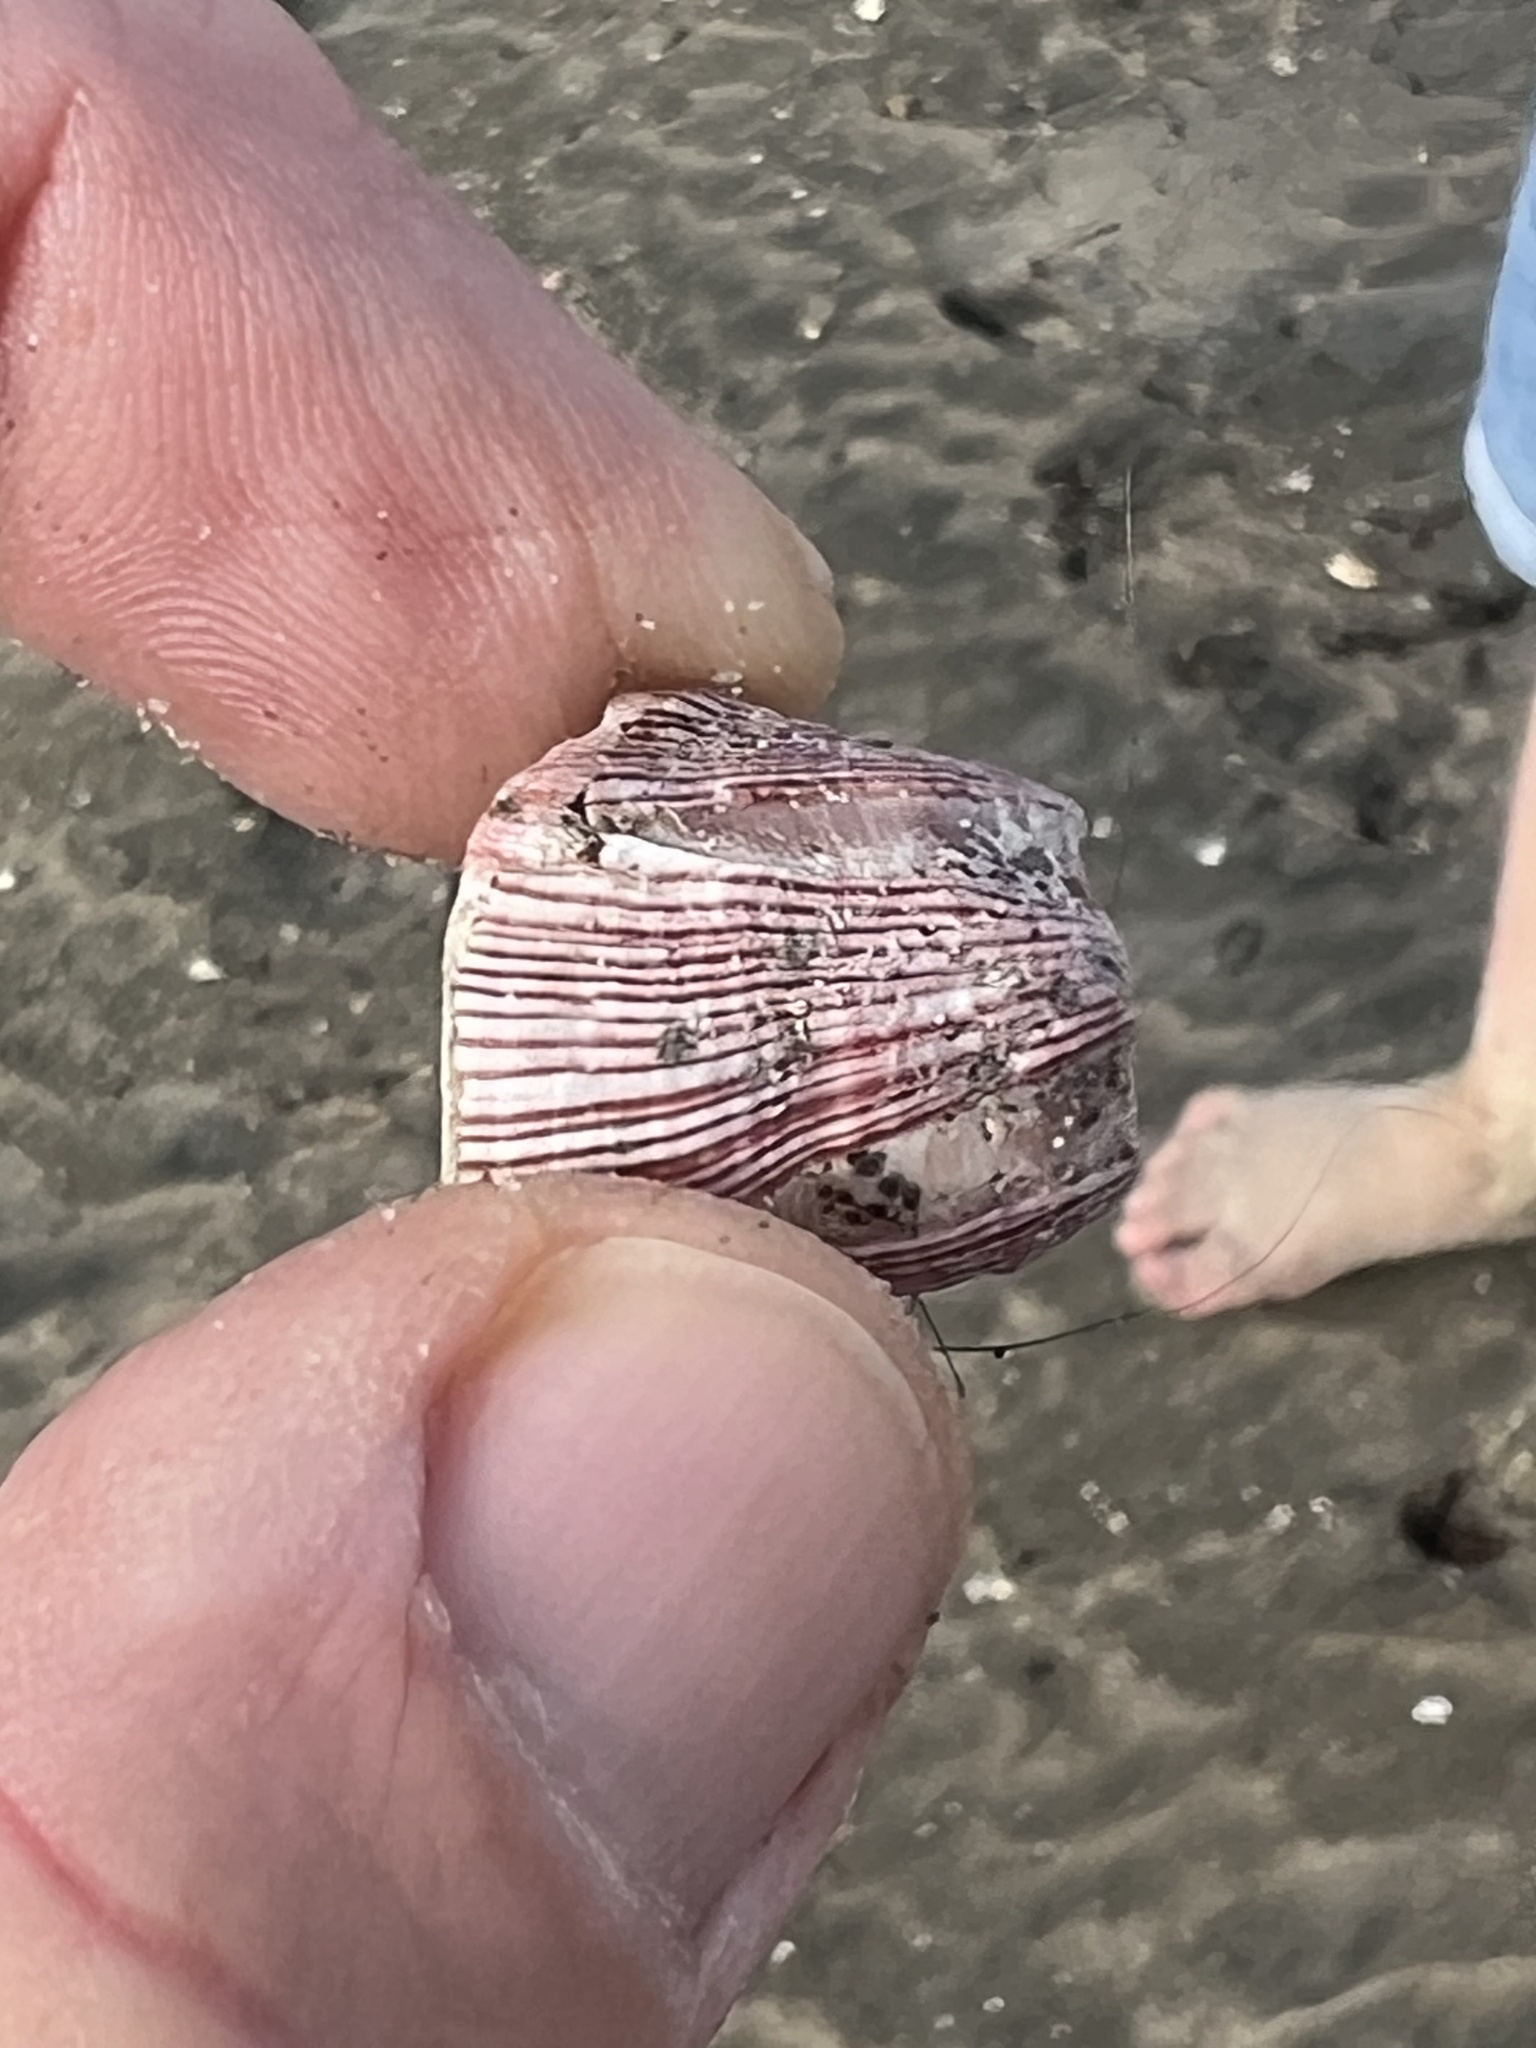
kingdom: Animalia
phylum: Arthropoda
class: Maxillopoda
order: Sessilia
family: Balanidae
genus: Megabalanus
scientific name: Megabalanus californicus
